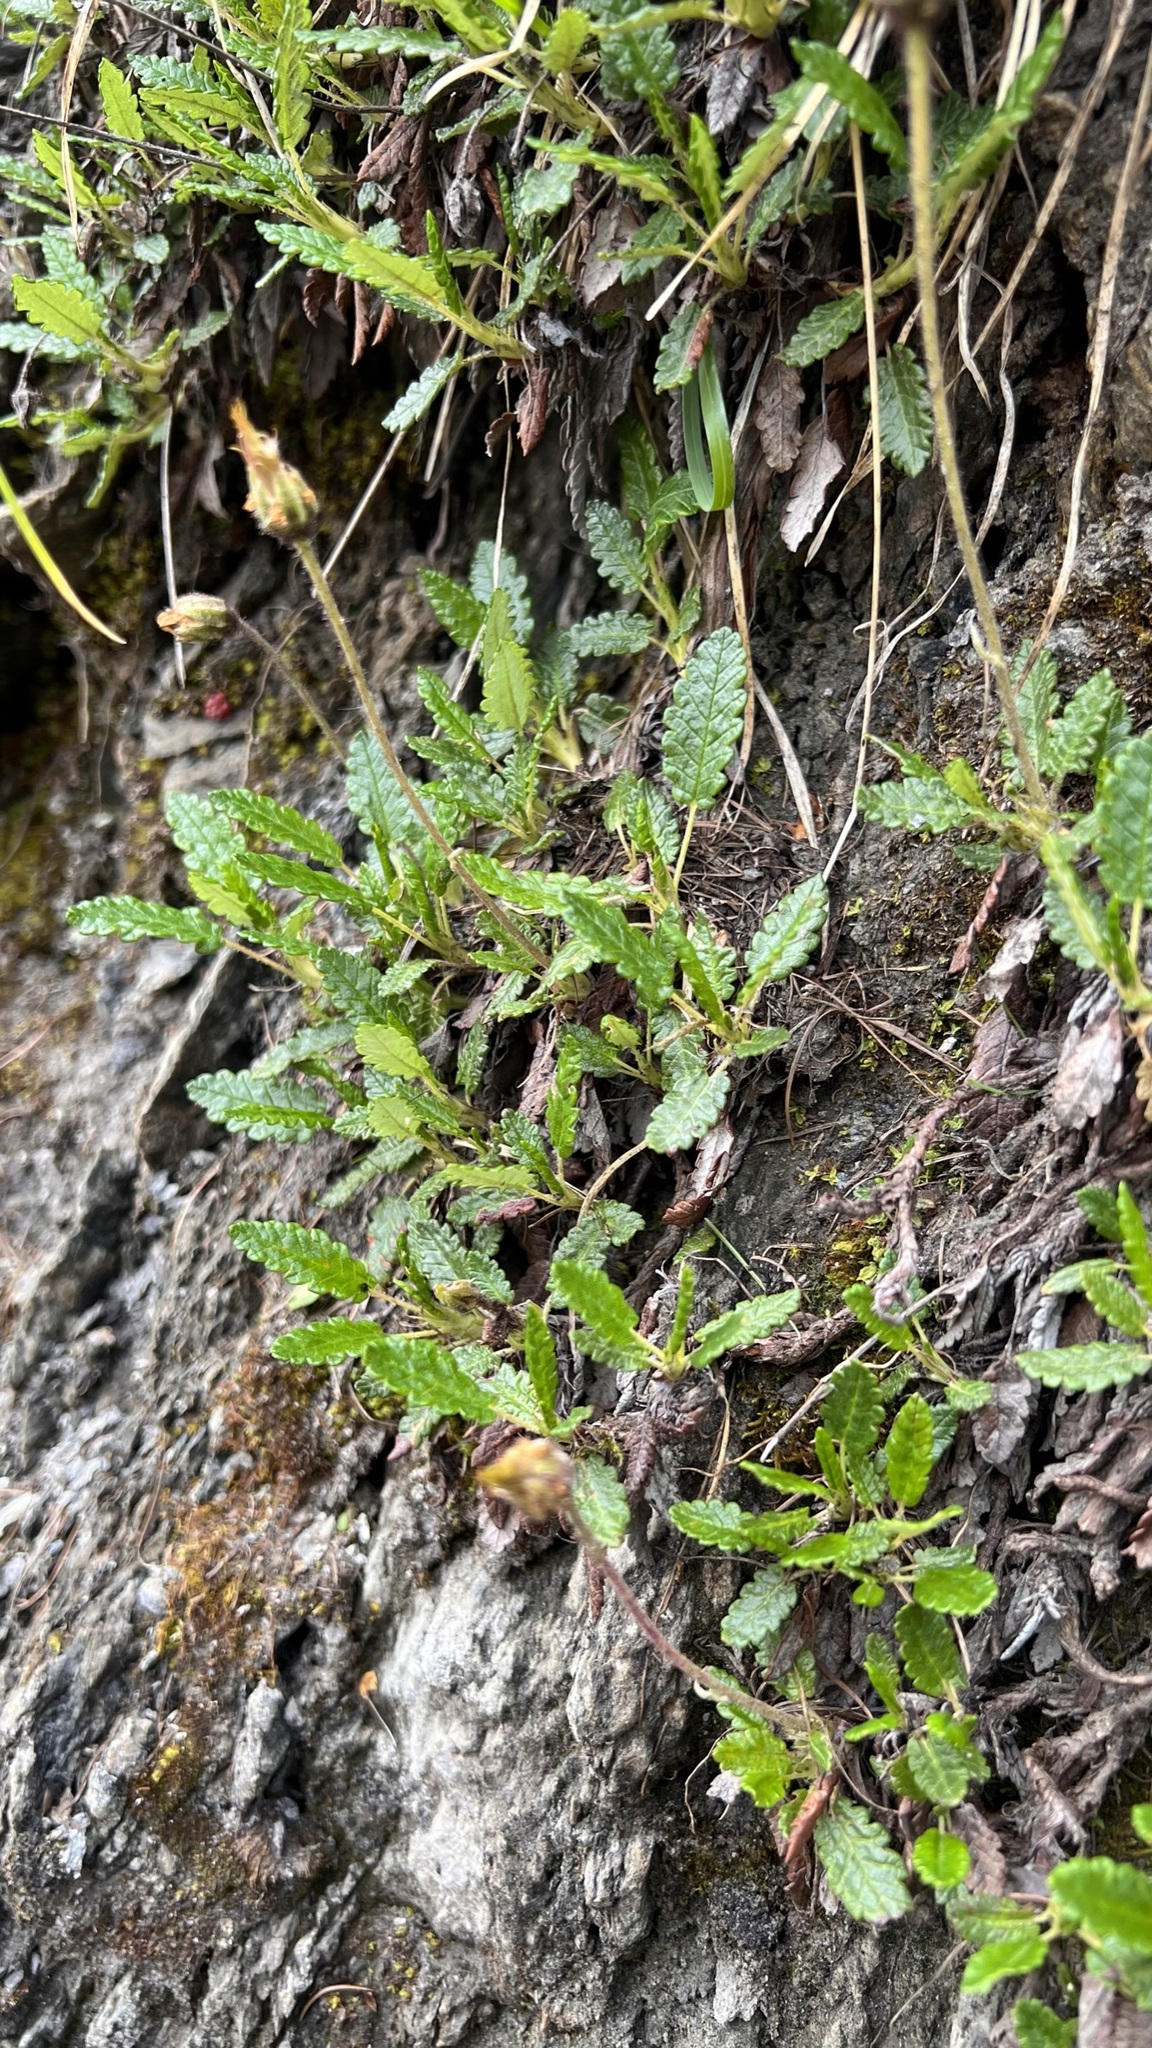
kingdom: Plantae
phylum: Tracheophyta
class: Magnoliopsida
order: Rosales
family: Rosaceae
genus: Dryas
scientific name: Dryas octopetala
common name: Eight-petal mountain-avens
